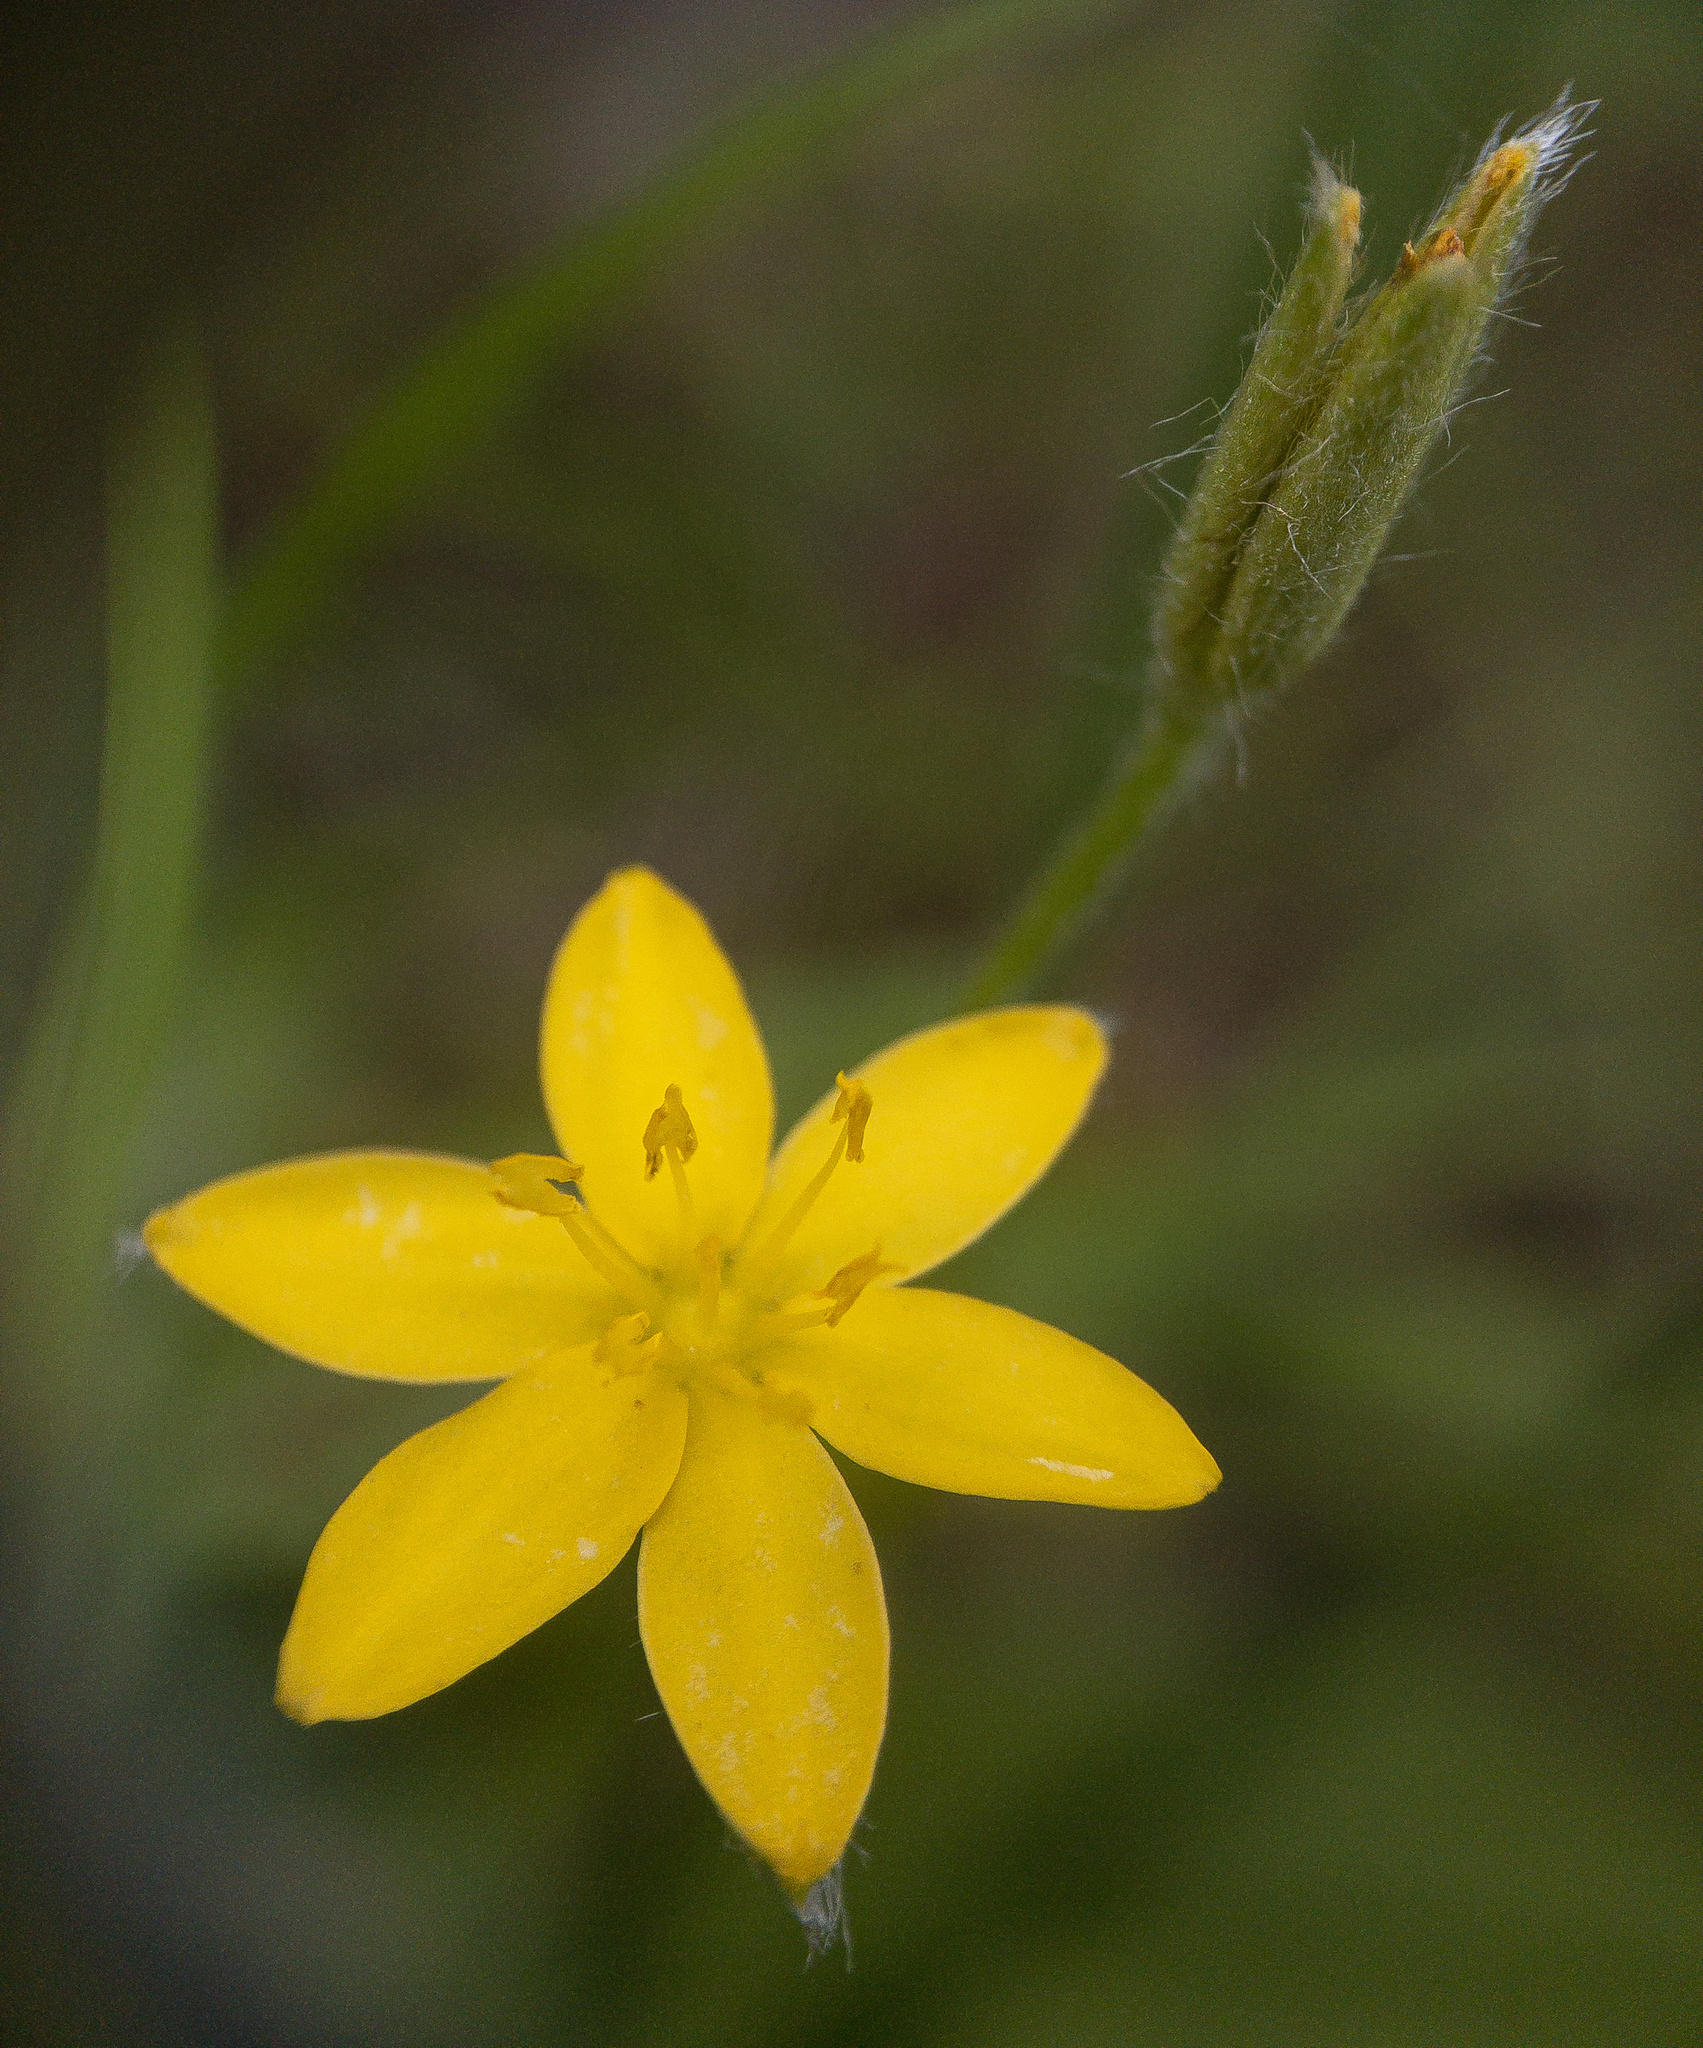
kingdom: Plantae
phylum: Tracheophyta
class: Liliopsida
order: Asparagales
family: Hypoxidaceae
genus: Hypoxis
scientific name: Hypoxis hirsuta
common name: Common goldstar
